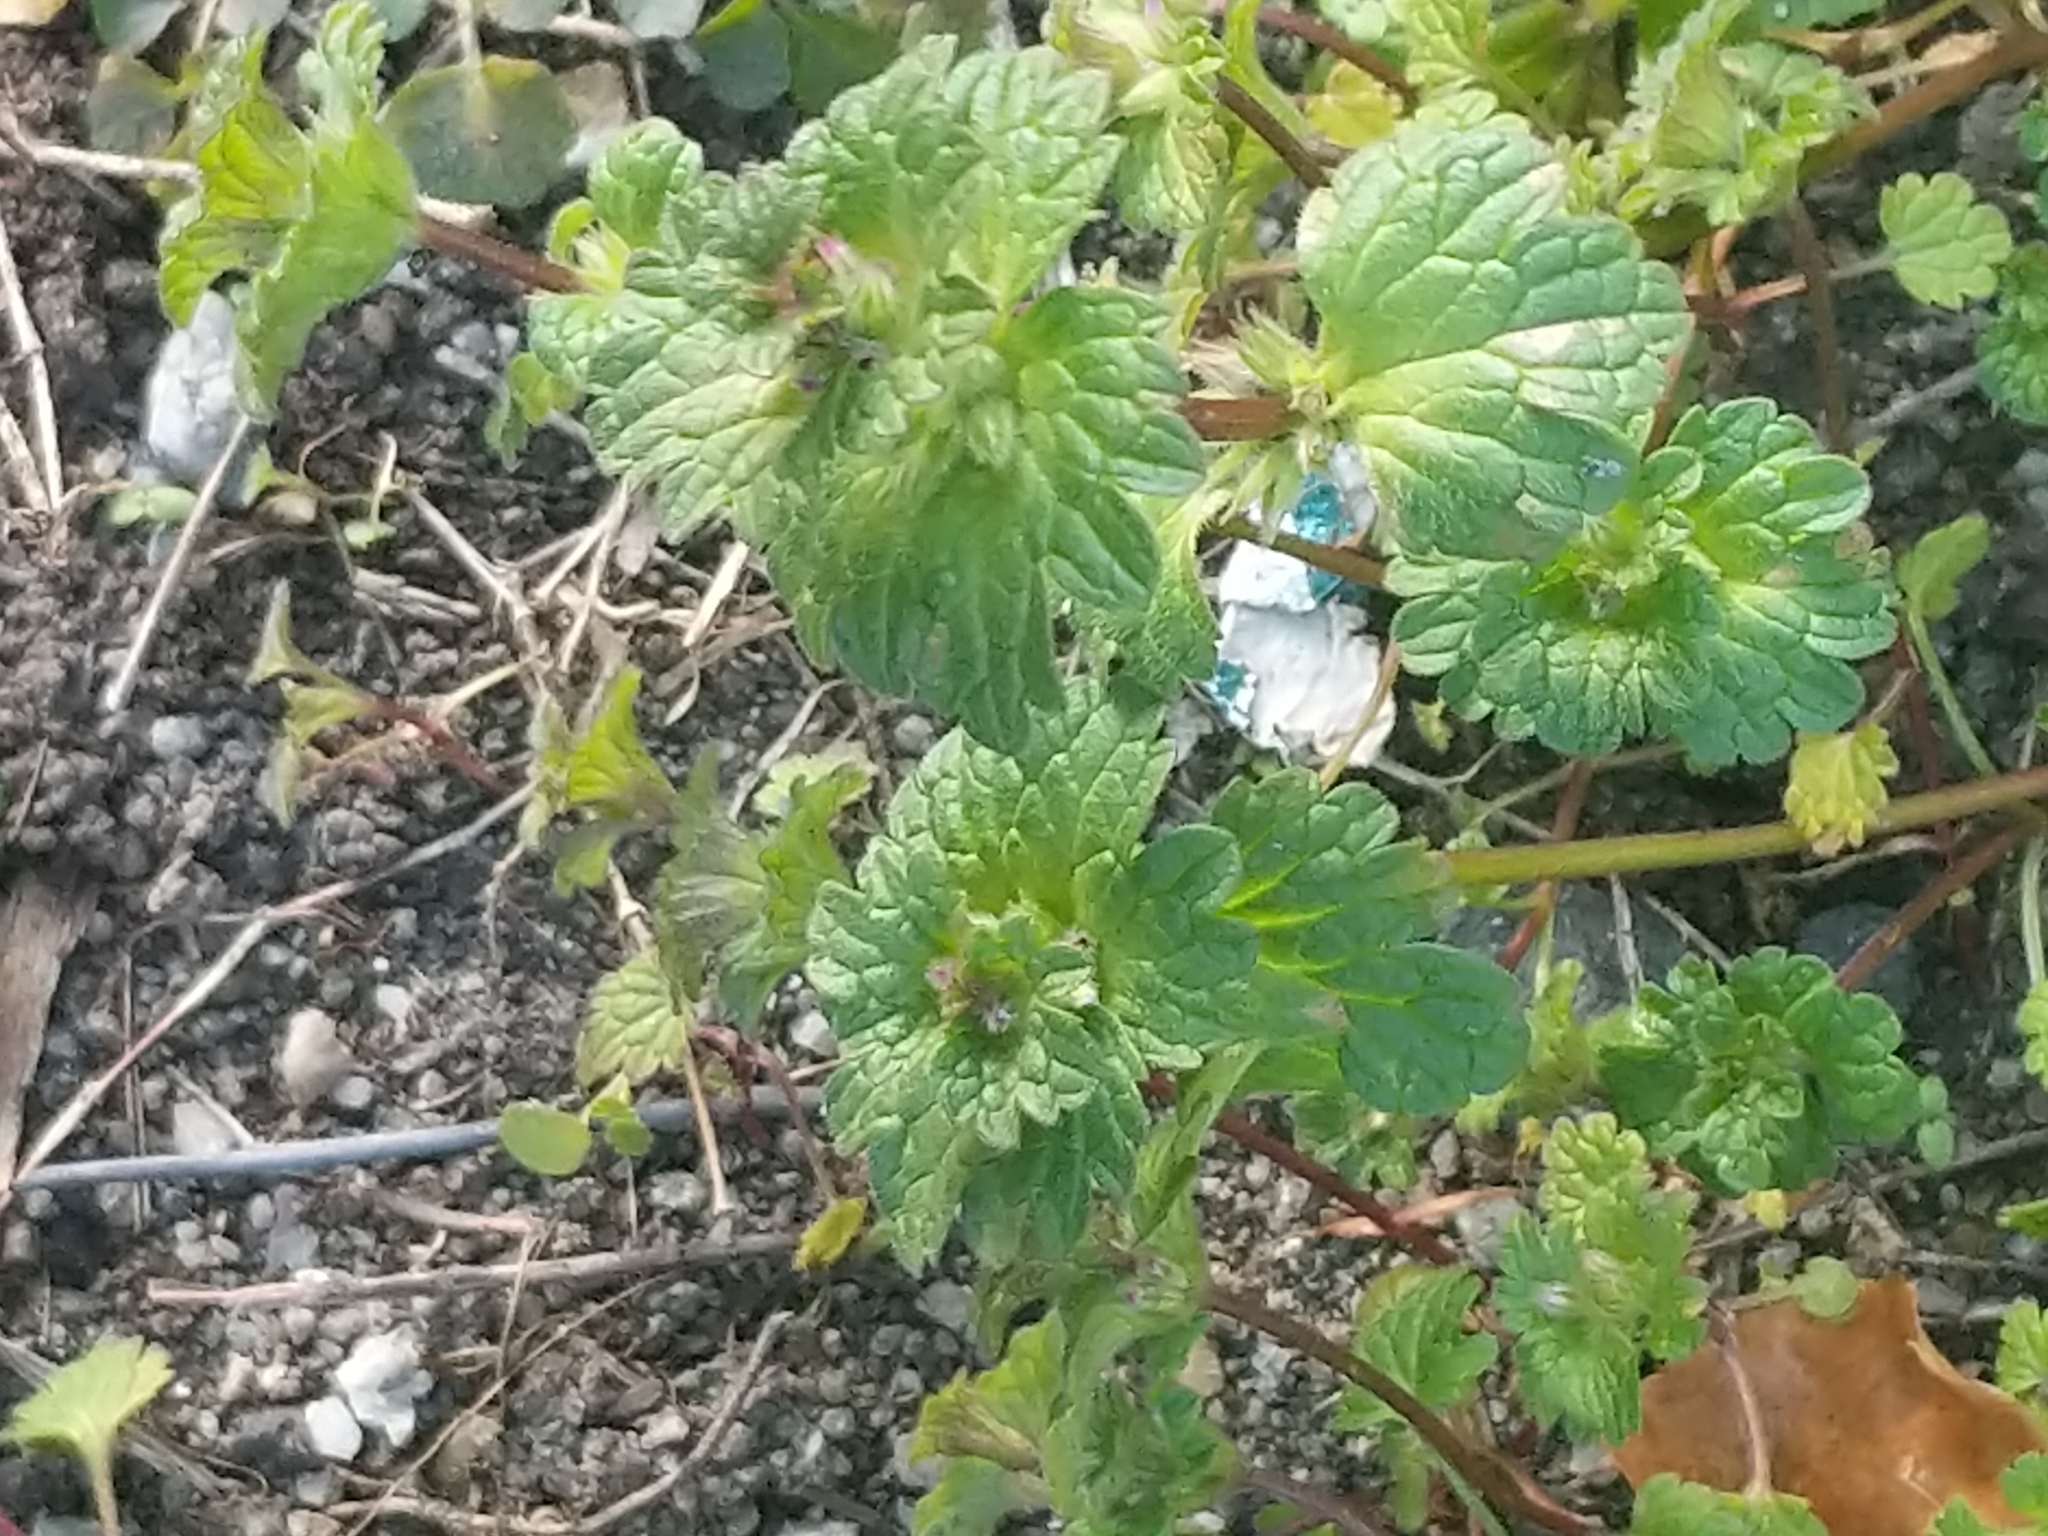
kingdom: Plantae
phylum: Tracheophyta
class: Magnoliopsida
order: Lamiales
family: Lamiaceae
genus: Lamium
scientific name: Lamium amplexicaule
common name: Henbit dead-nettle
